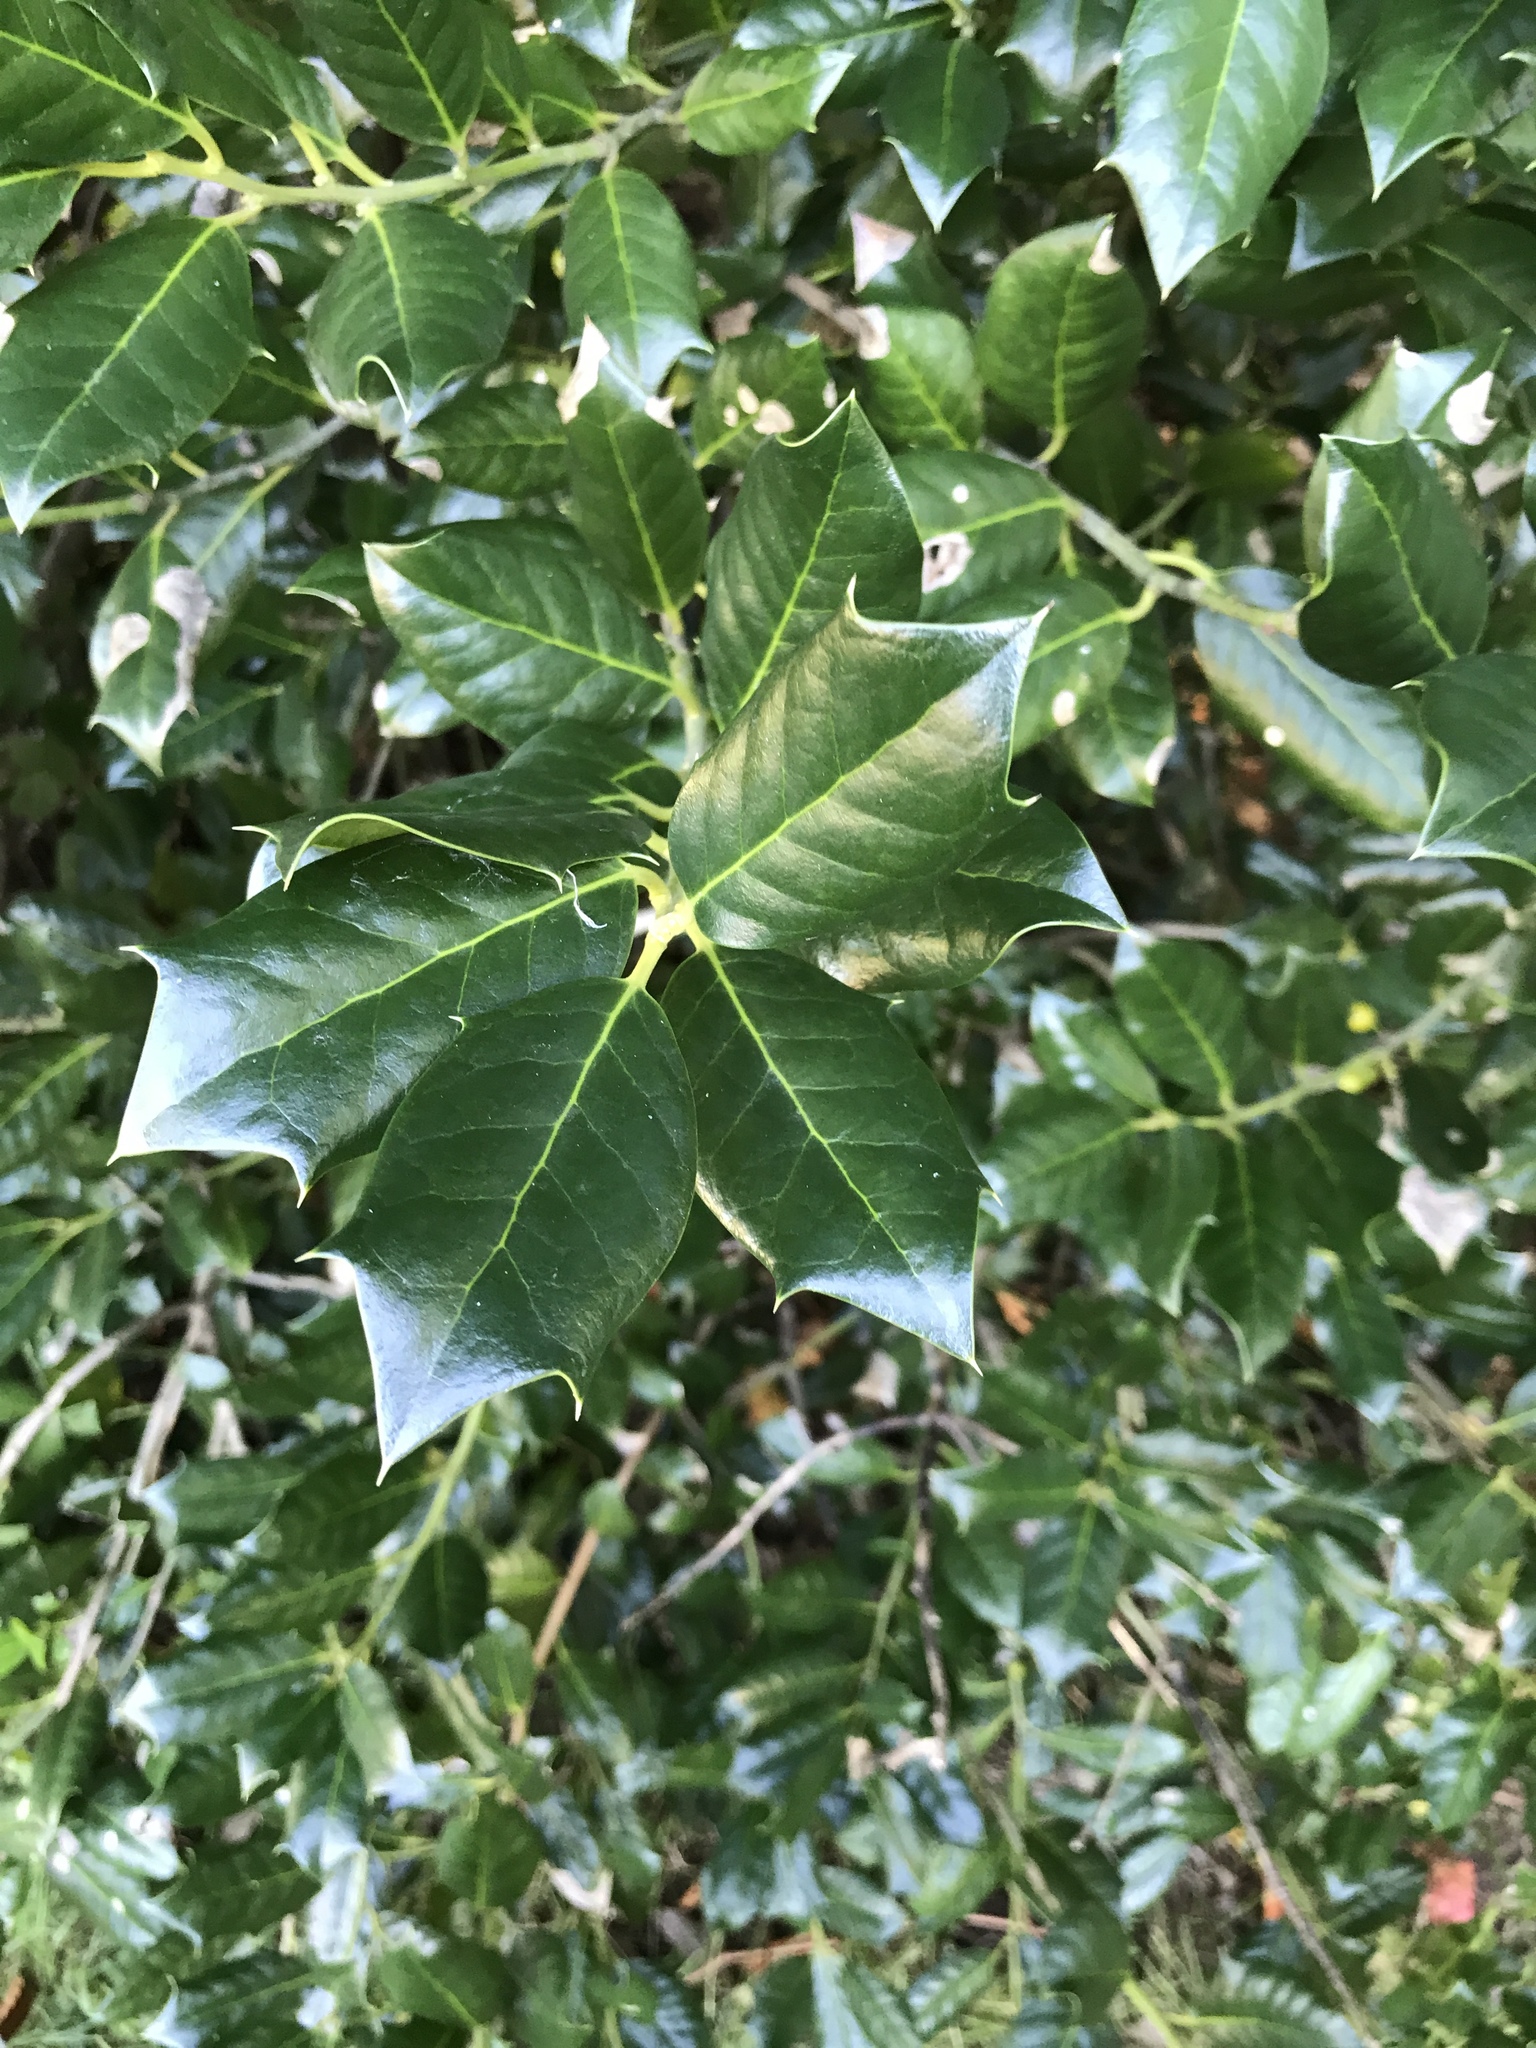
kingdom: Plantae
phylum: Tracheophyta
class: Magnoliopsida
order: Aquifoliales
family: Aquifoliaceae
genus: Ilex
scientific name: Ilex aquifolium
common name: English holly
